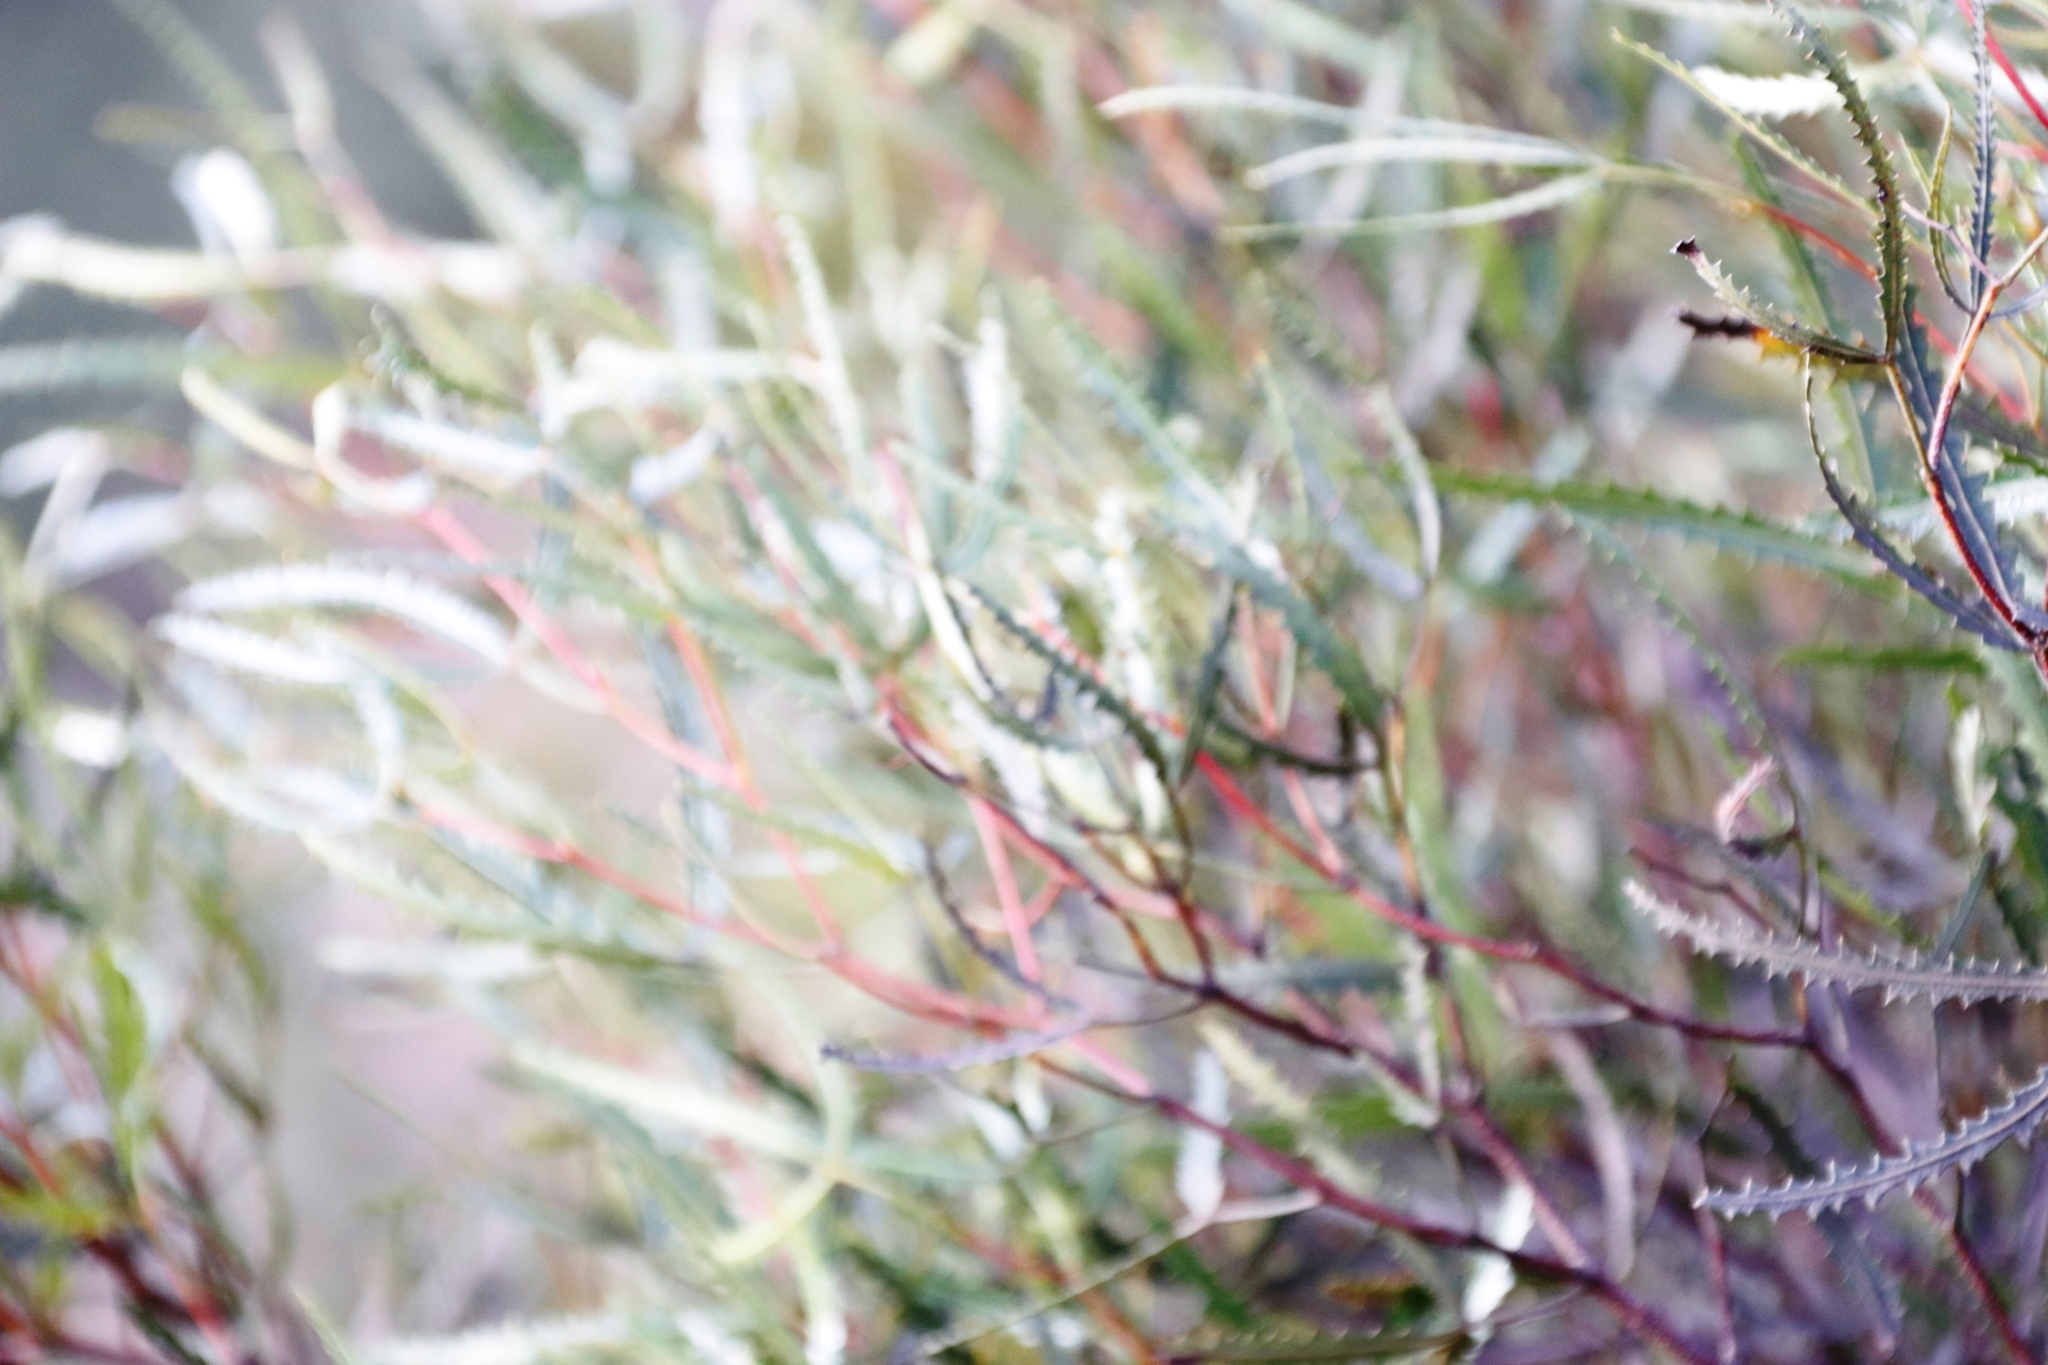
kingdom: Plantae
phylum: Tracheophyta
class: Magnoliopsida
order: Sapindales
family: Anacardiaceae
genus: Searsia
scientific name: Searsia erosa
